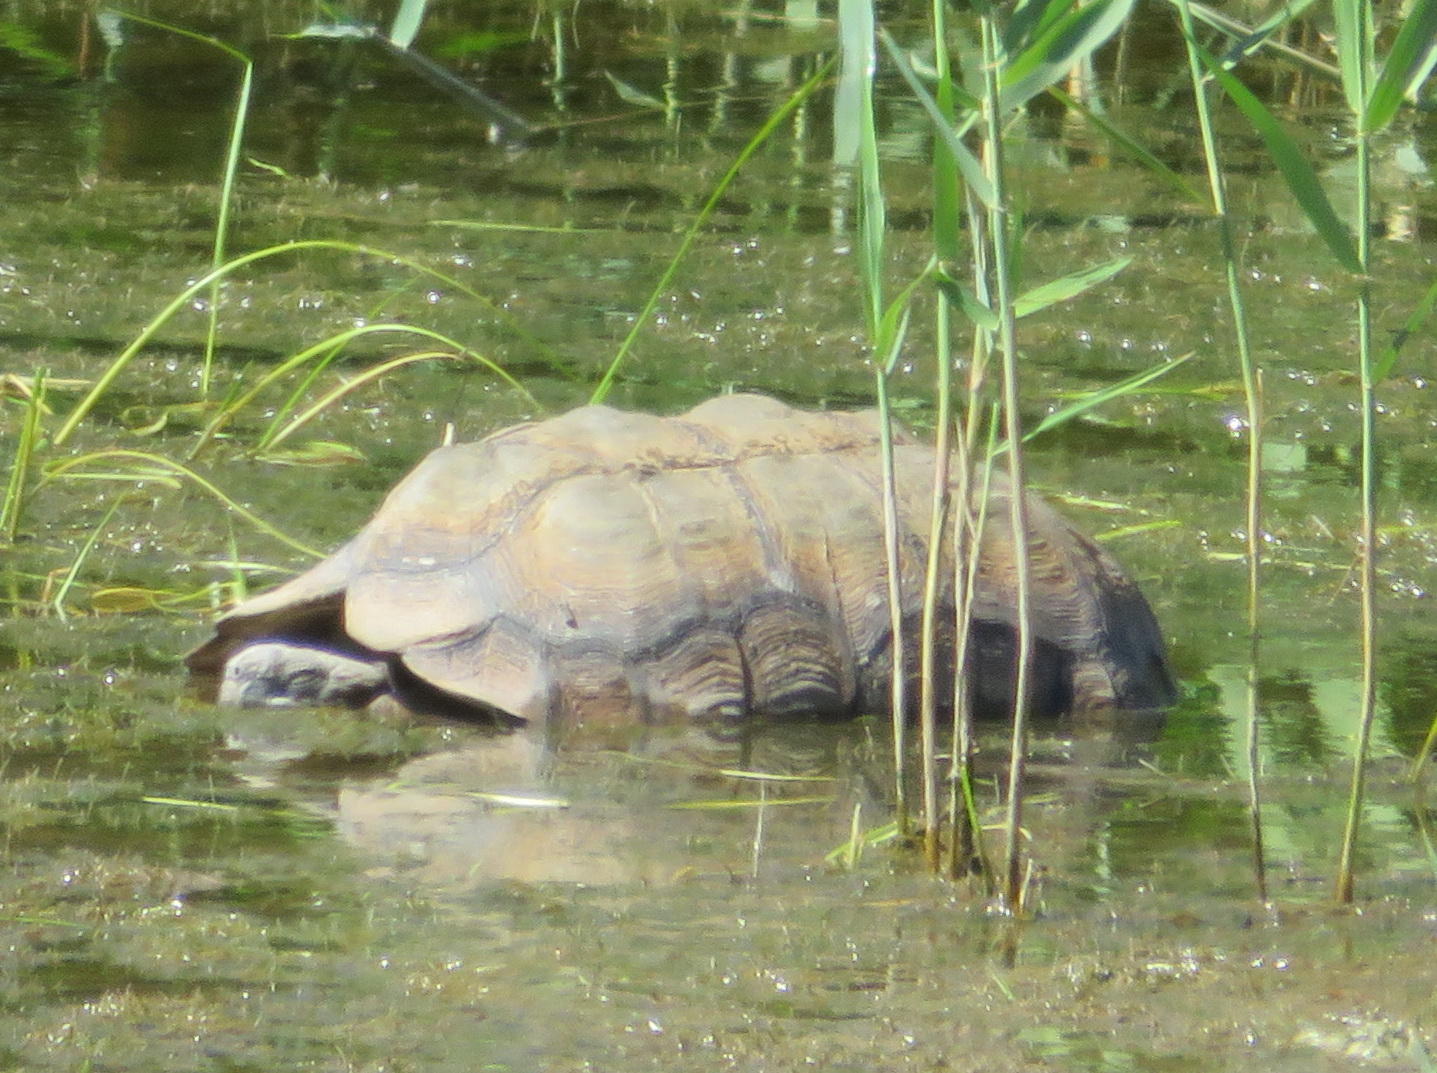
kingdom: Animalia
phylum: Chordata
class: Testudines
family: Testudinidae
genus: Stigmochelys
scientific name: Stigmochelys pardalis
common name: Leopard tortoise
